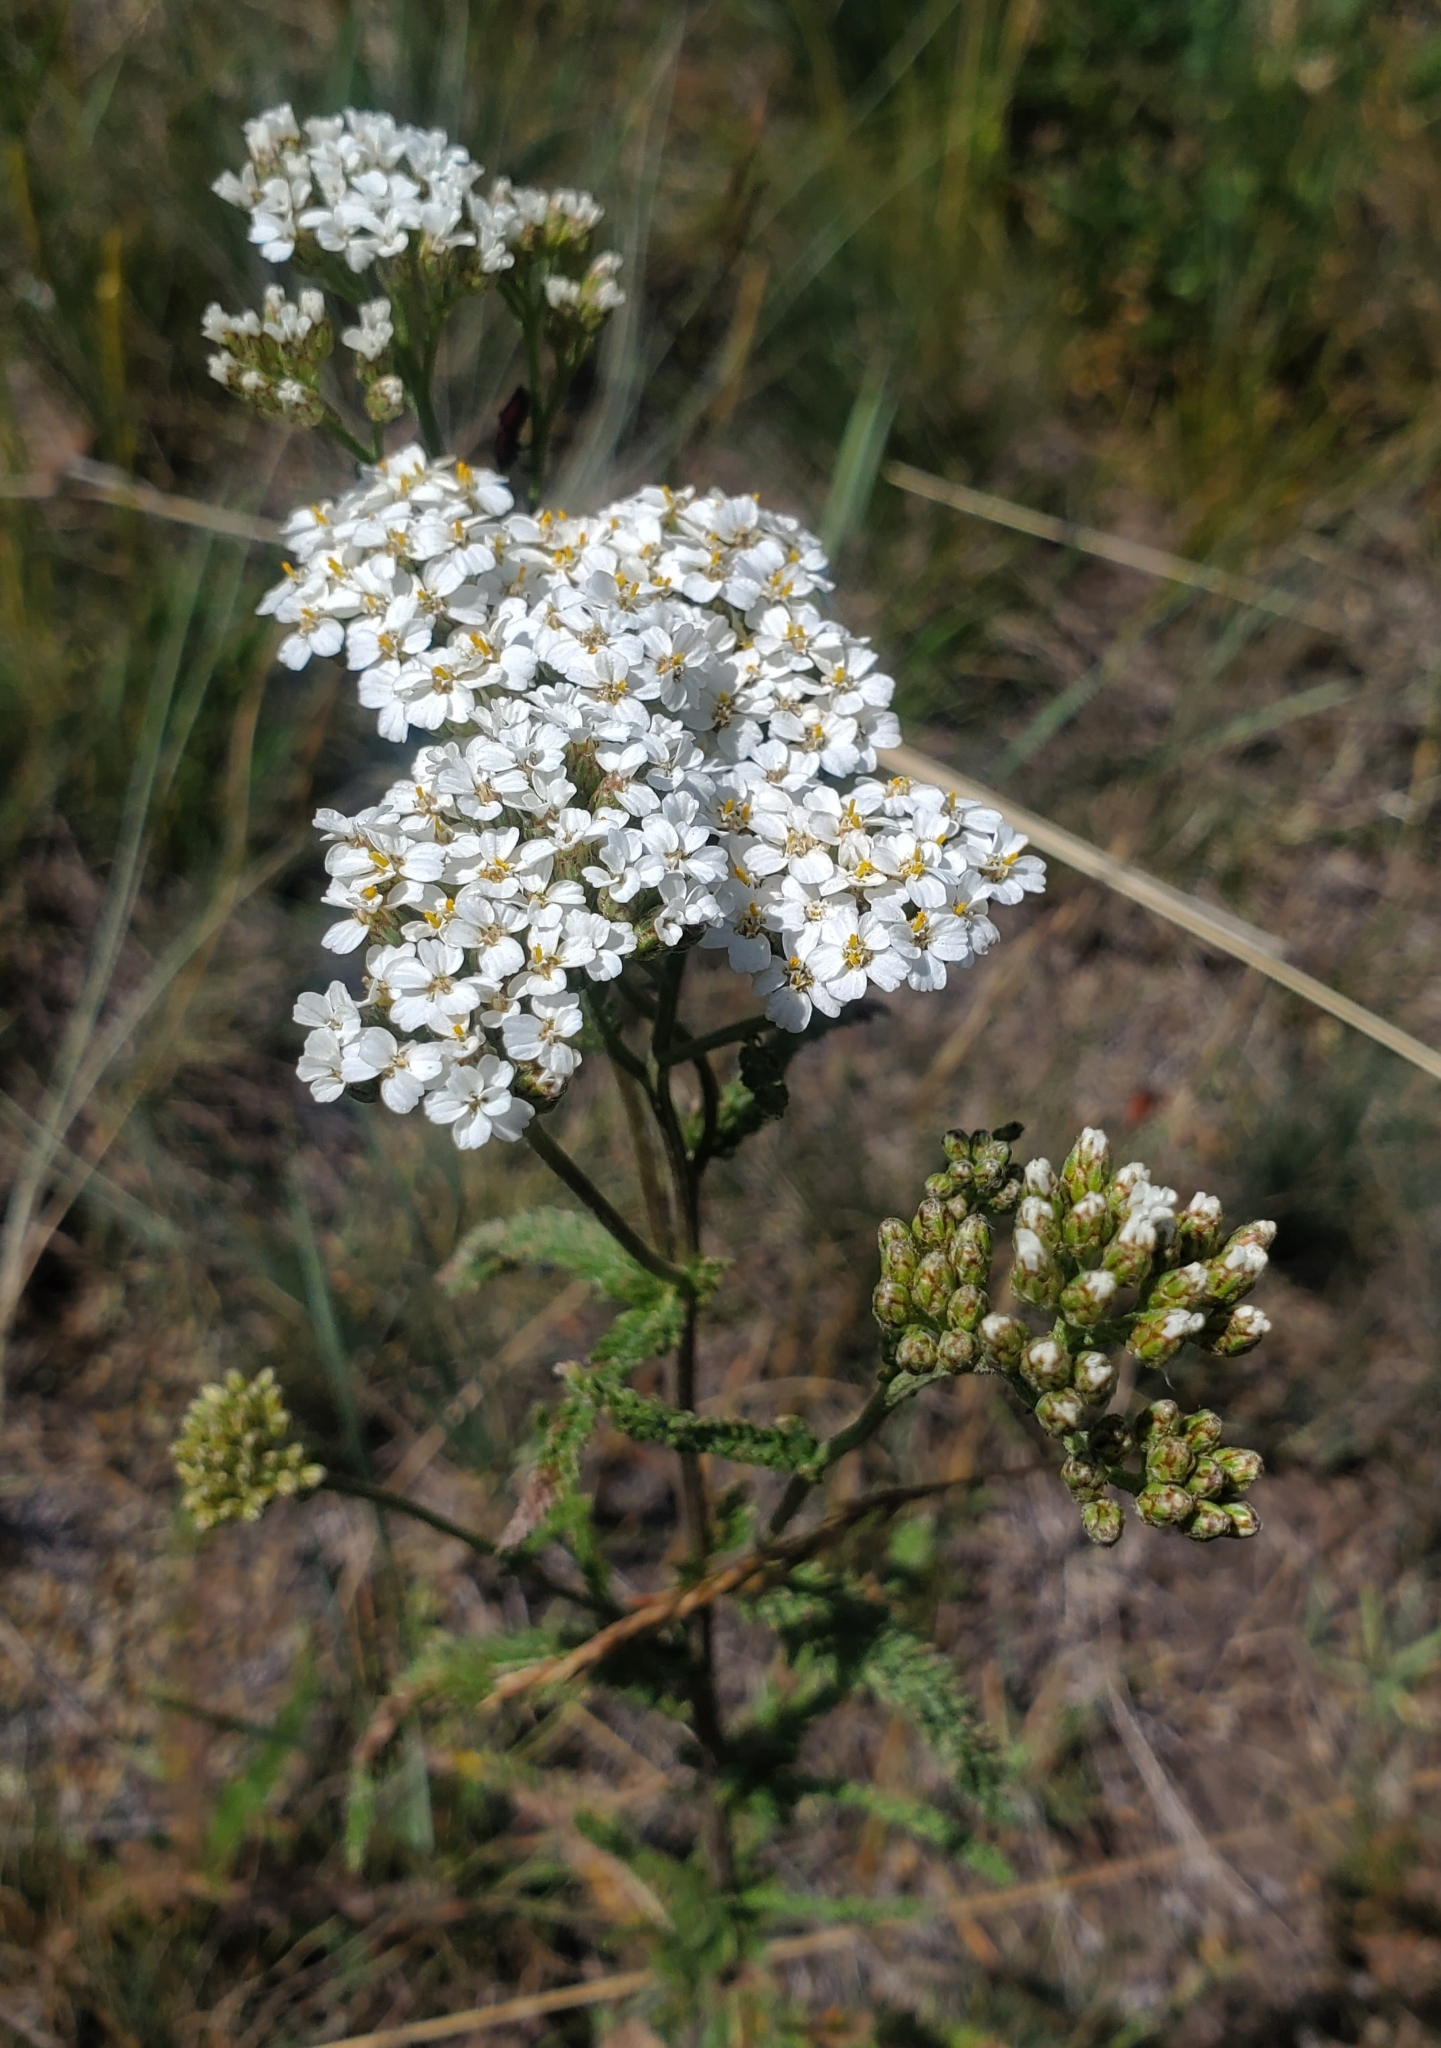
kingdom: Plantae
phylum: Tracheophyta
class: Magnoliopsida
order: Asterales
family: Asteraceae
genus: Achillea
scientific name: Achillea millefolium
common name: Yarrow
